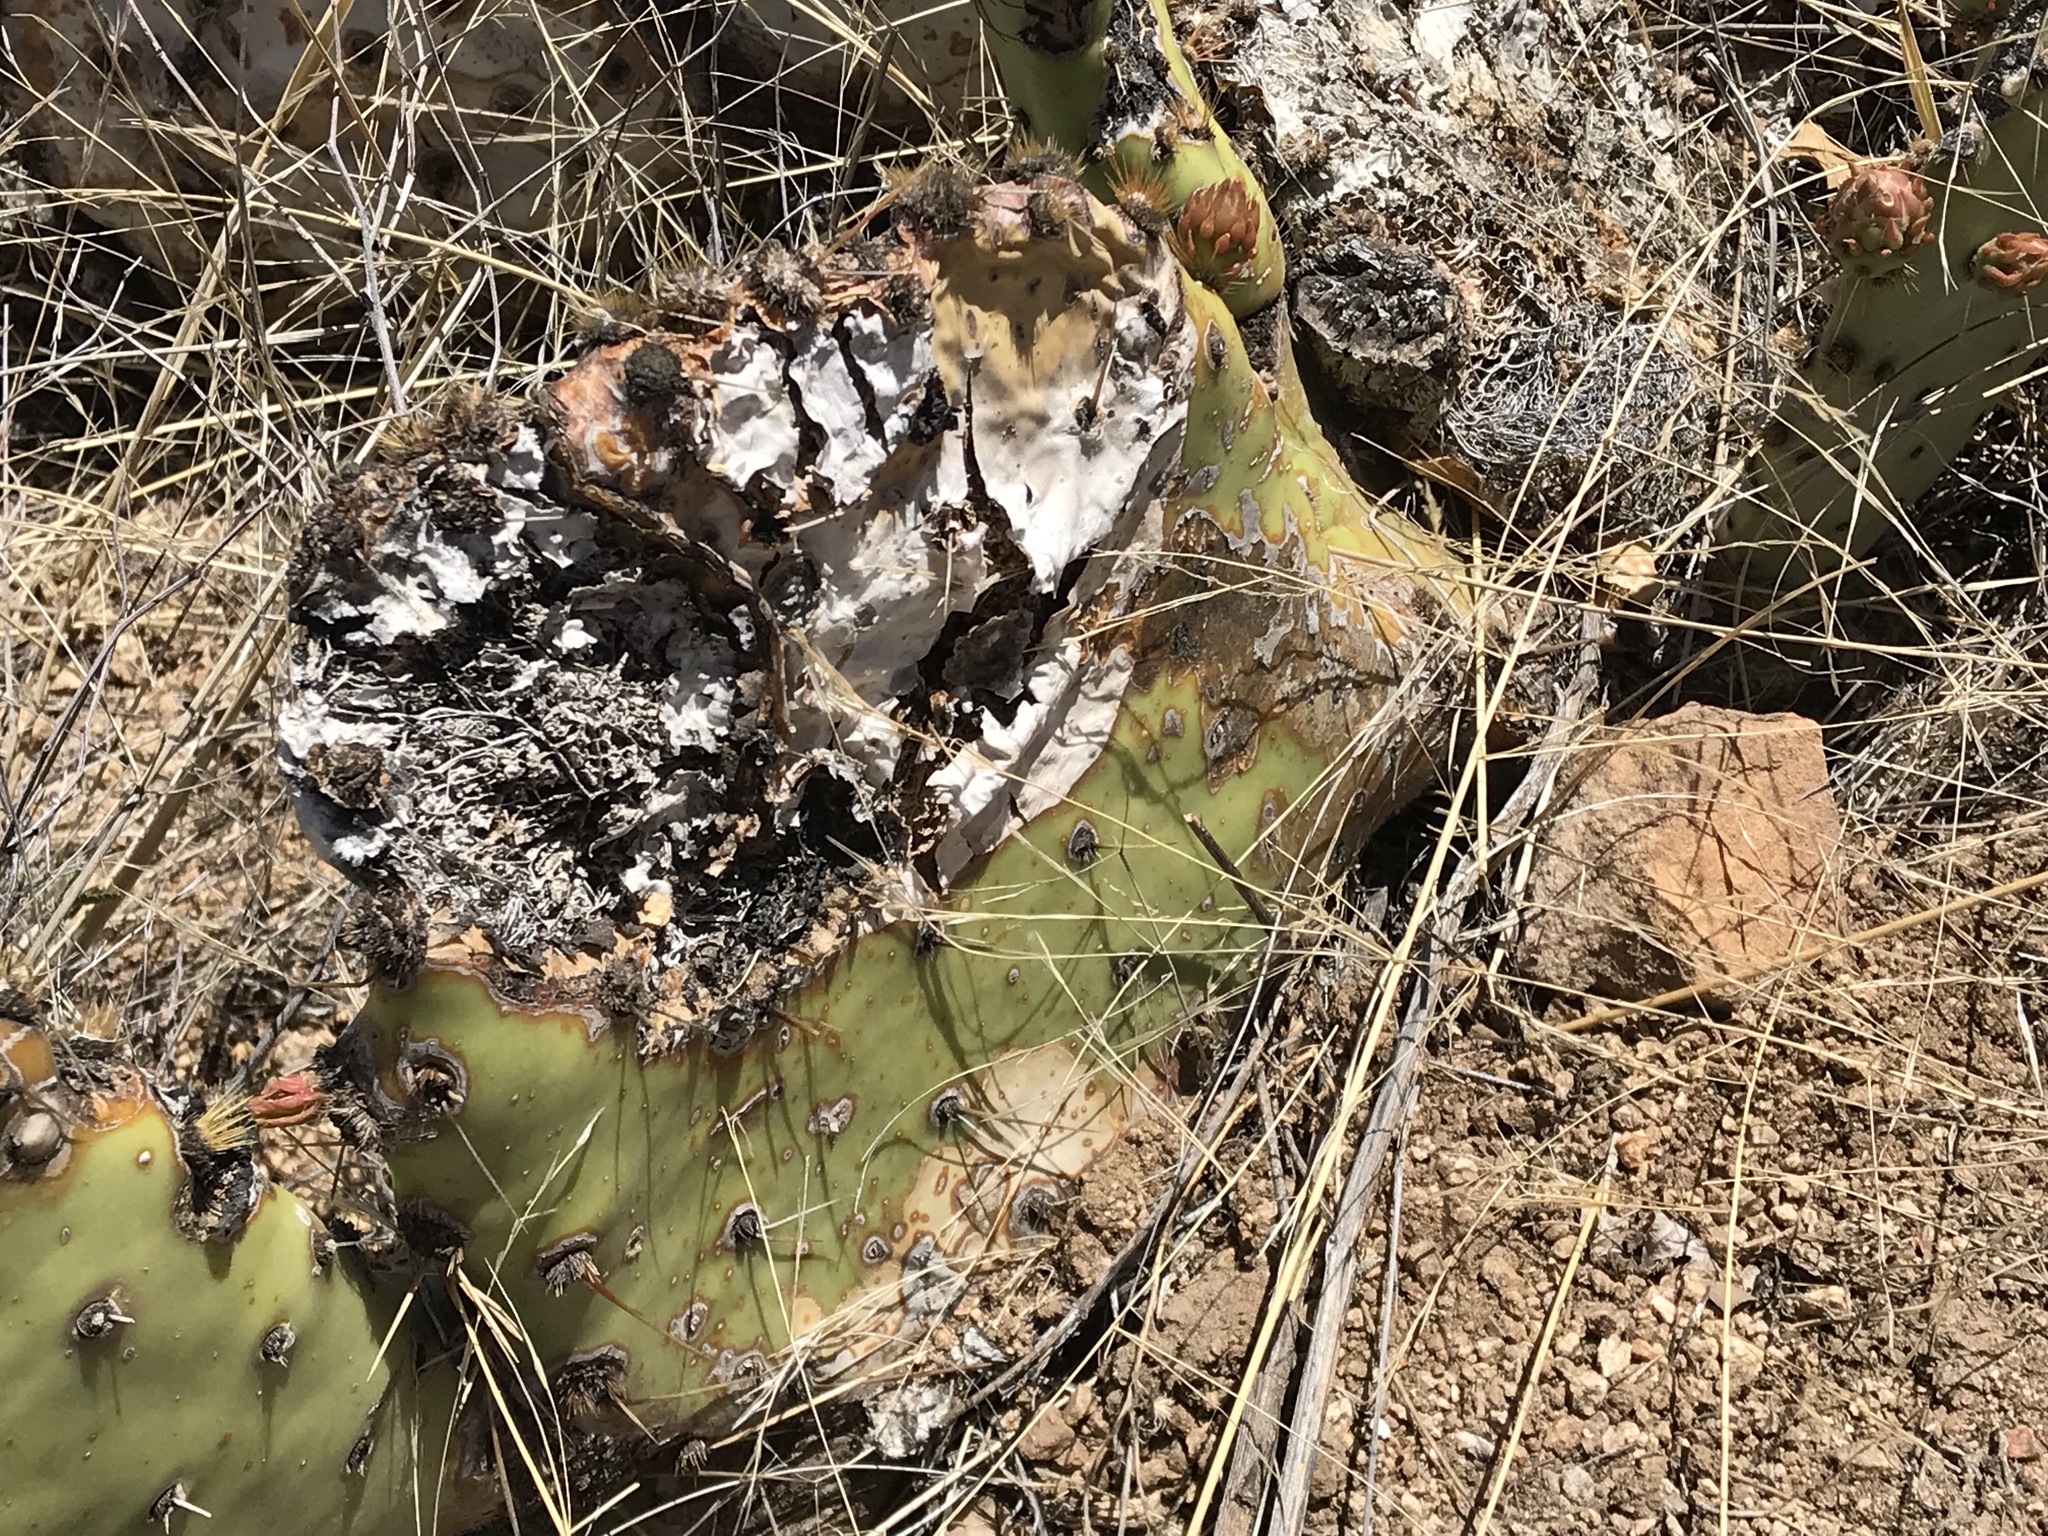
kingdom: Plantae
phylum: Tracheophyta
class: Magnoliopsida
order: Caryophyllales
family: Cactaceae
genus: Opuntia
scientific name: Opuntia phaeacantha
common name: New mexico prickly-pear
